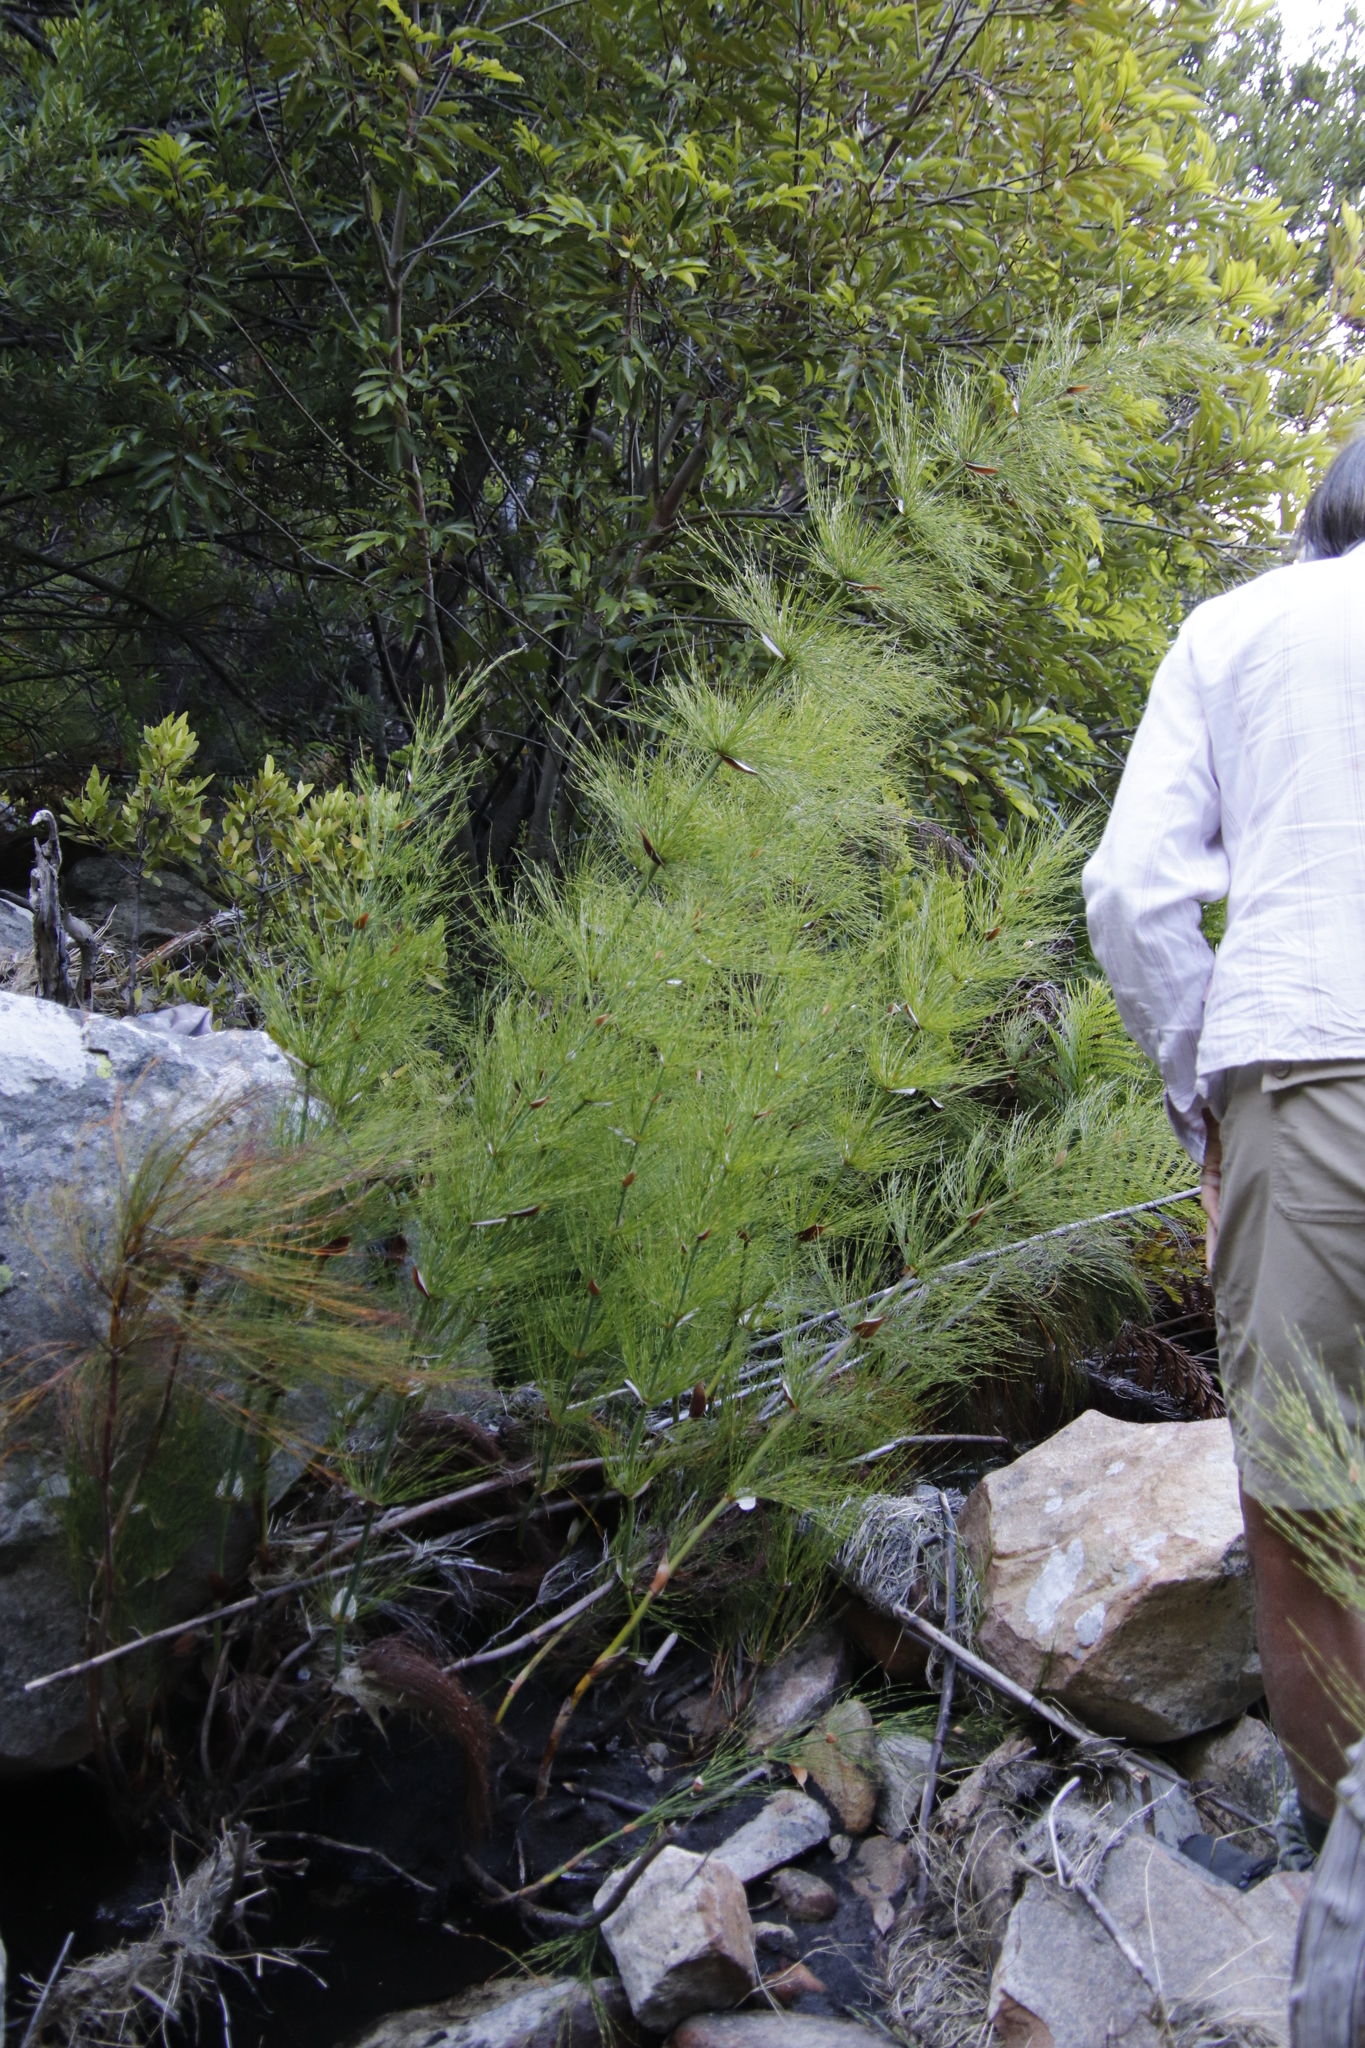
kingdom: Plantae
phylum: Tracheophyta
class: Liliopsida
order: Poales
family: Restionaceae
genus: Elegia
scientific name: Elegia capensis
